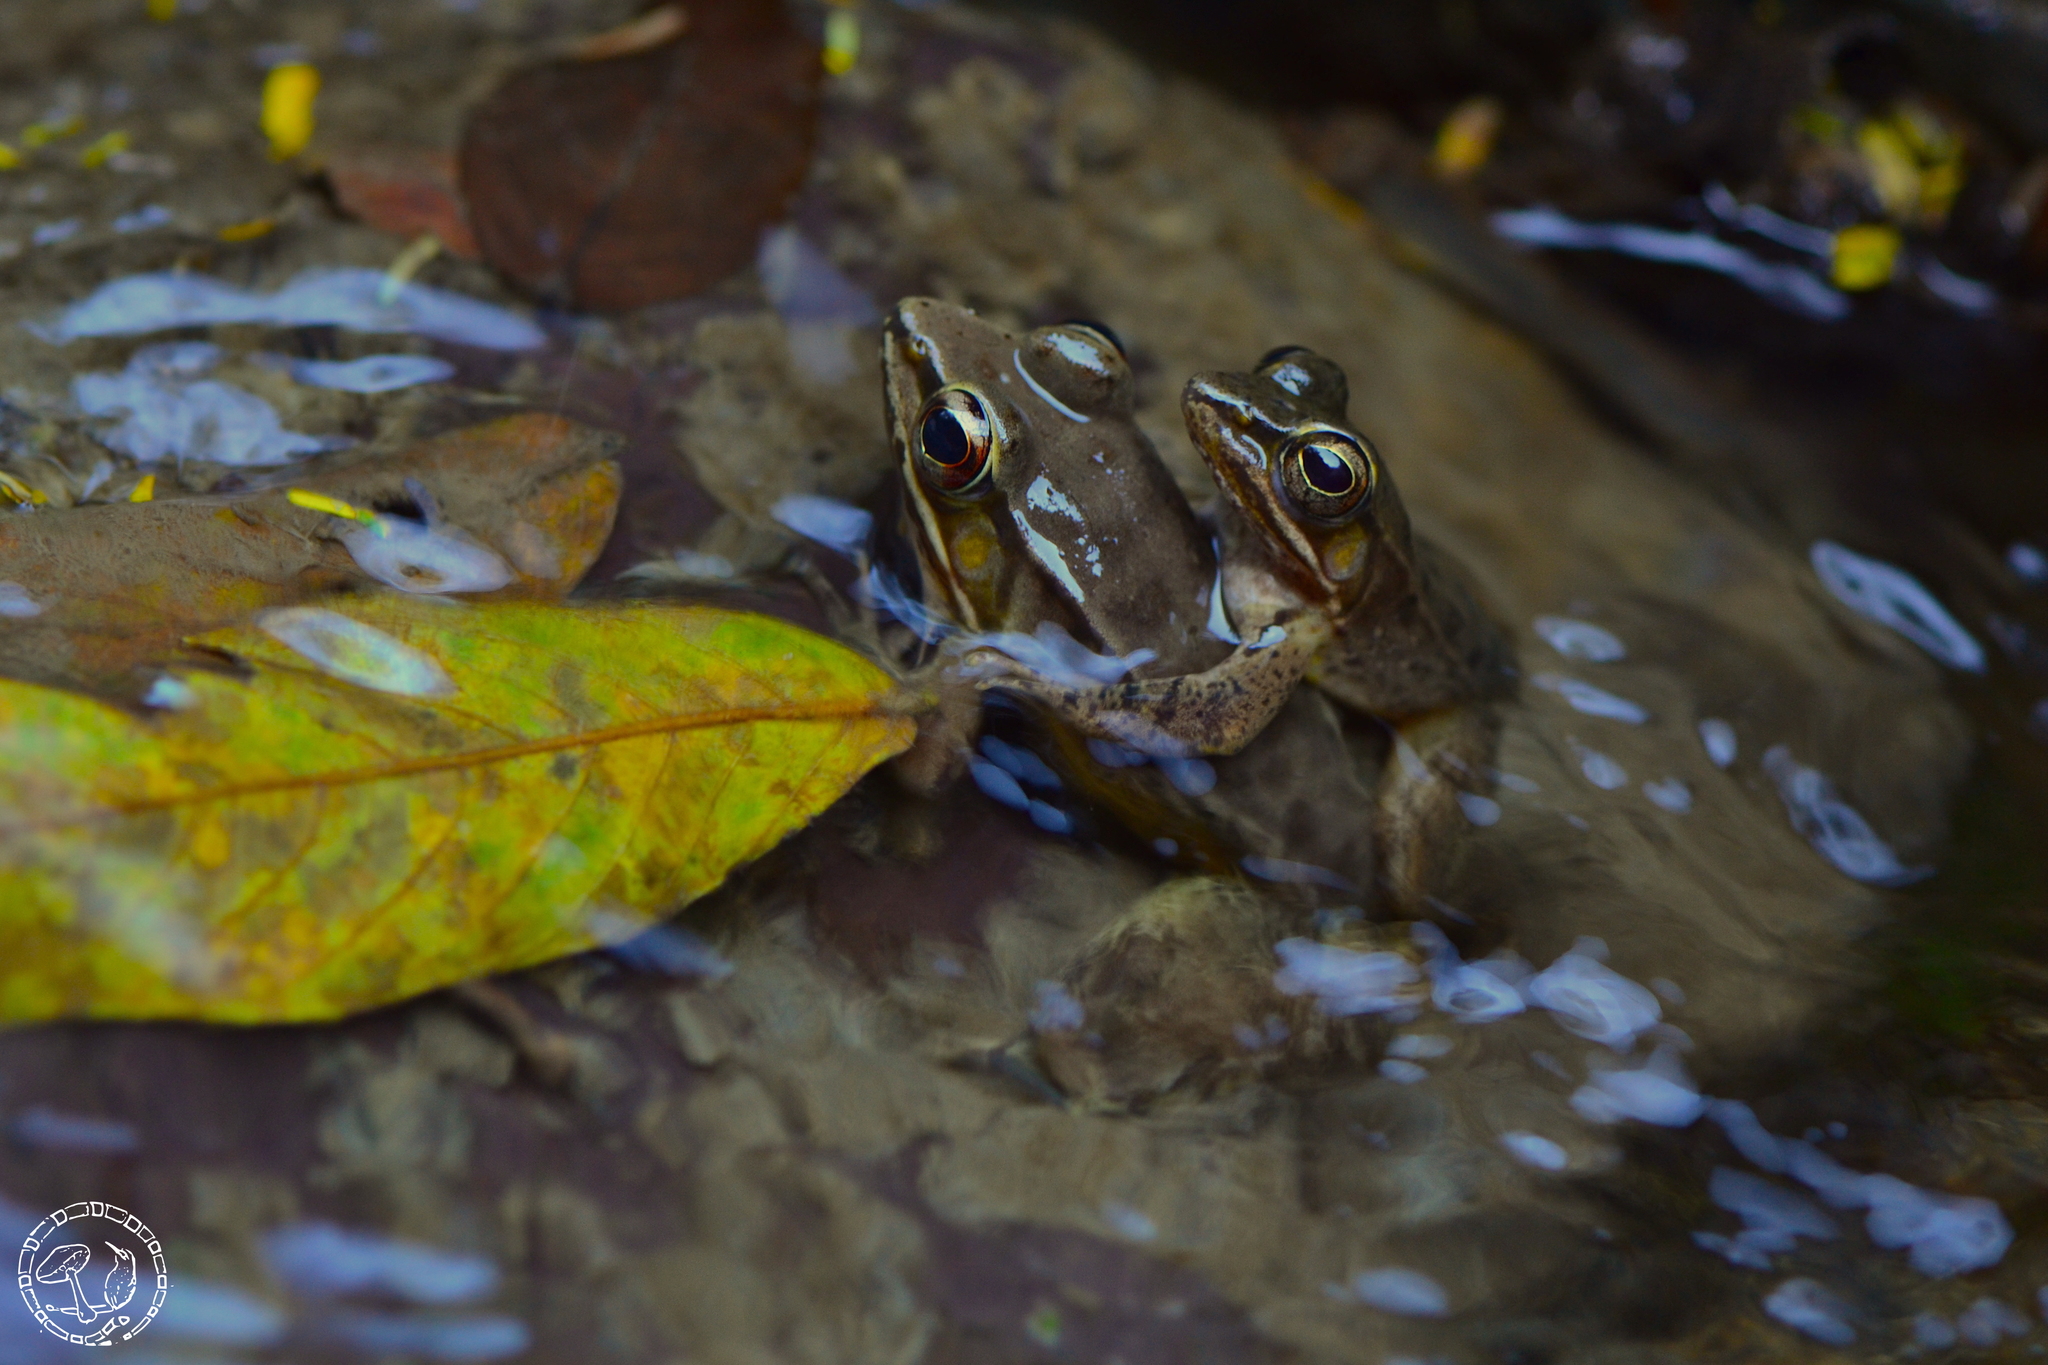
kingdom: Animalia
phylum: Chordata
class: Amphibia
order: Anura
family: Ranidae
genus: Lithobates
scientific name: Lithobates maculatus
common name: Highland frog
